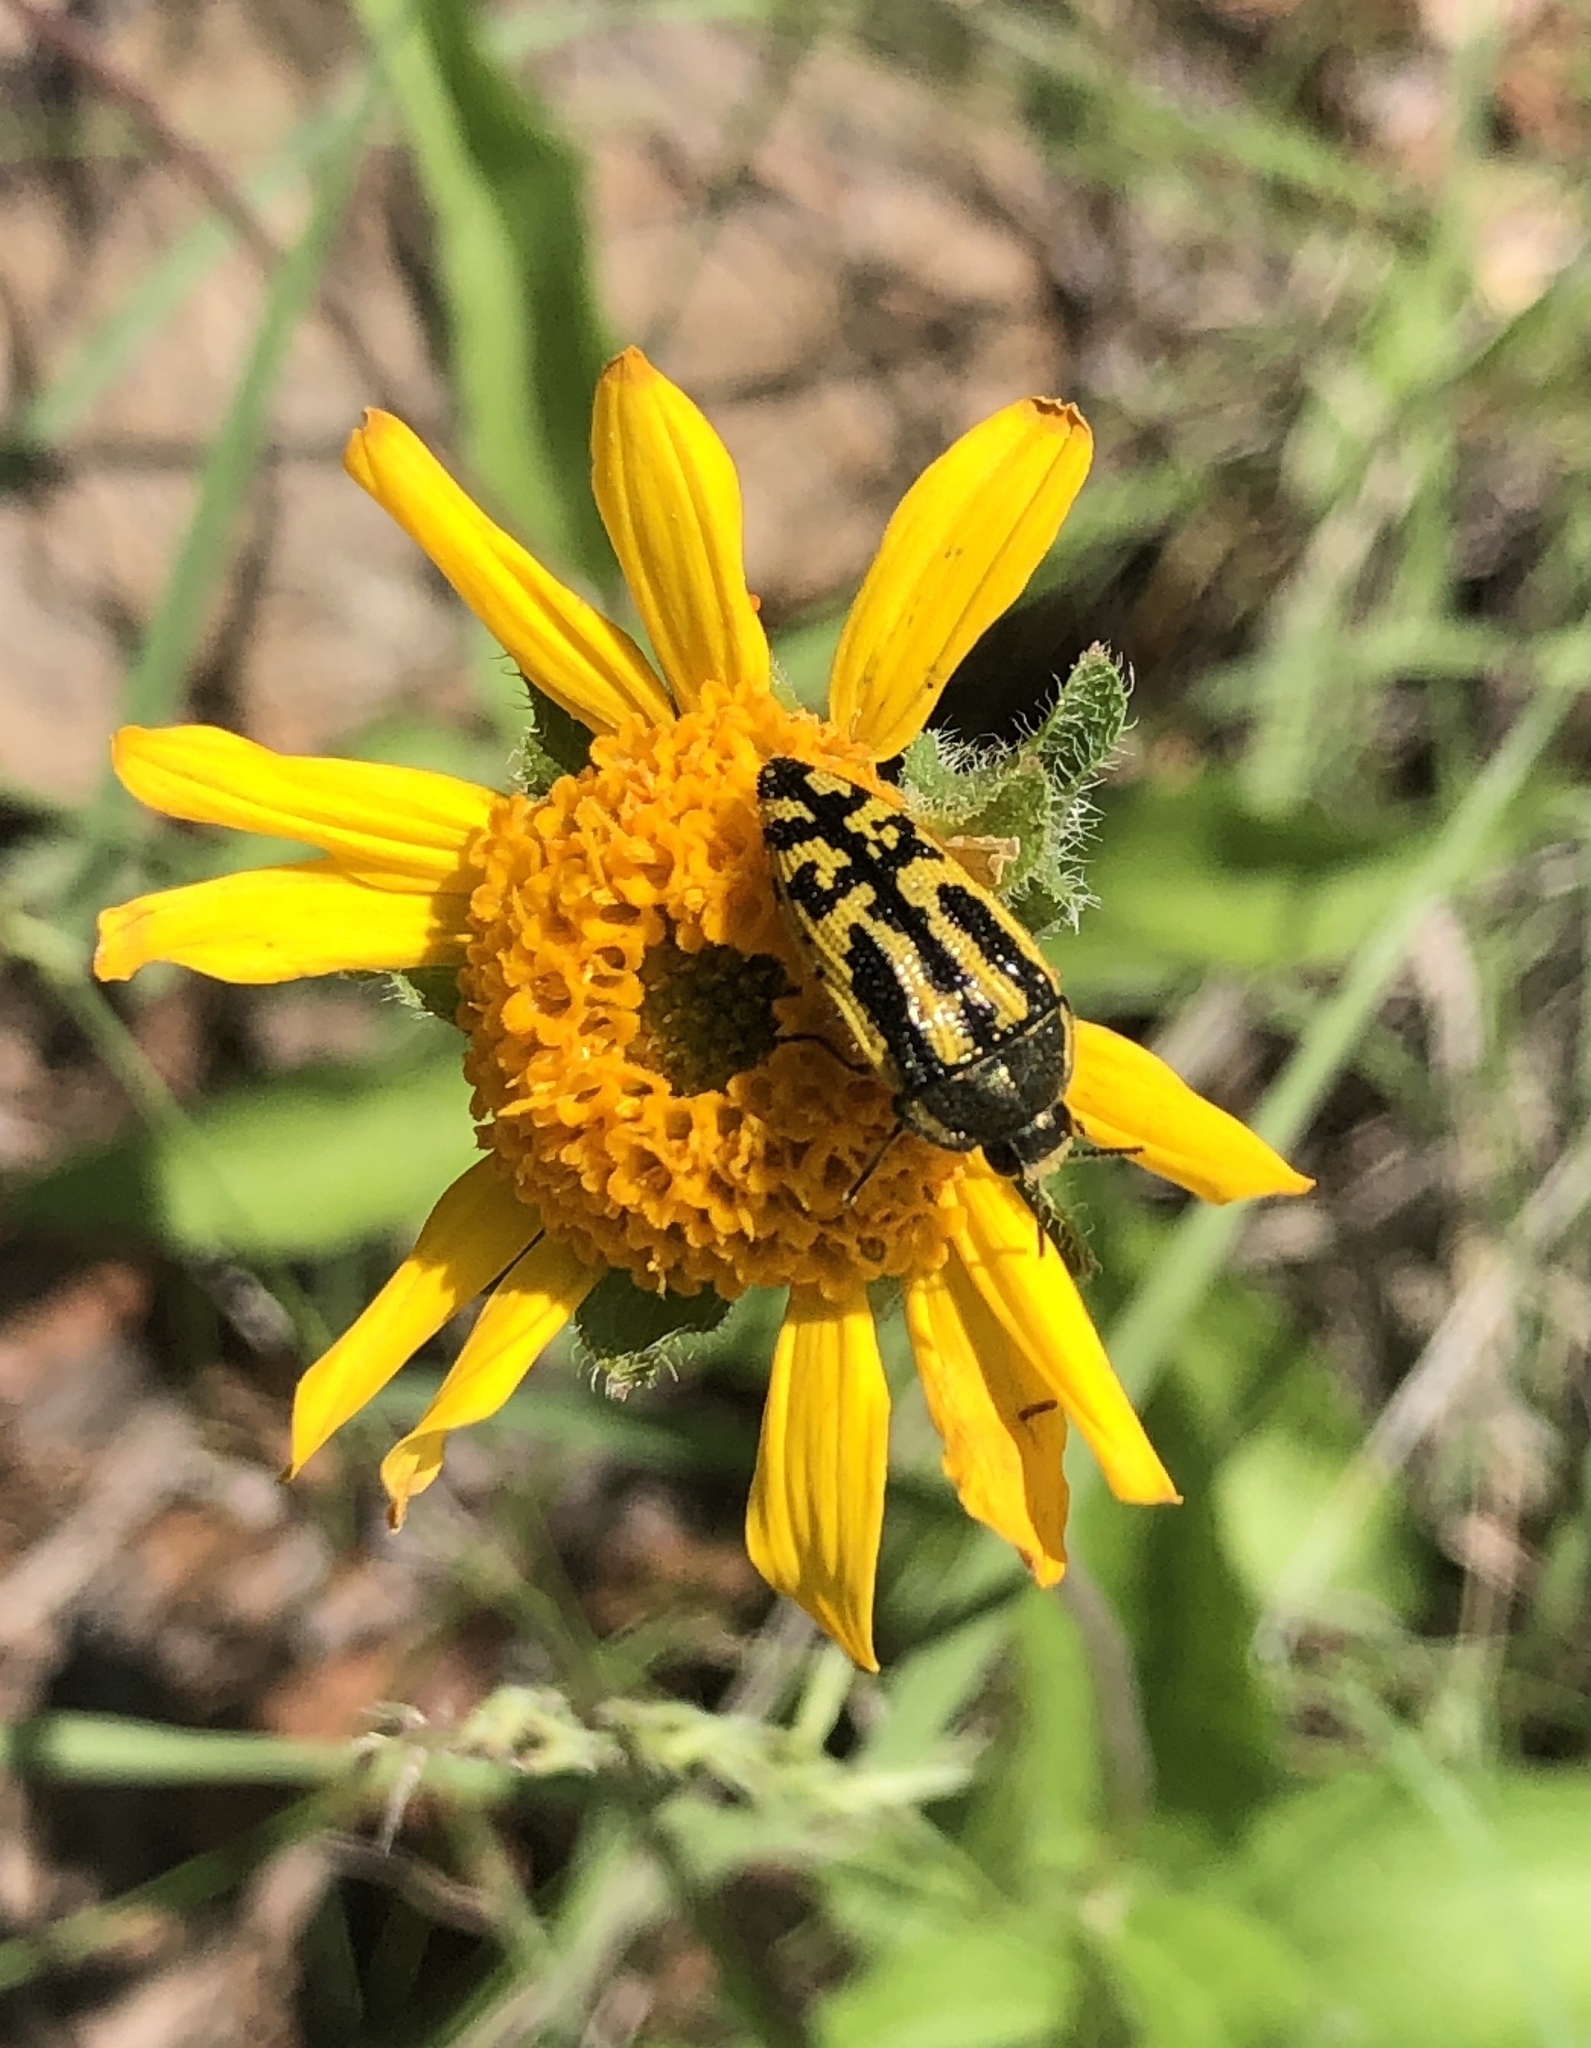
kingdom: Animalia
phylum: Arthropoda
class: Insecta
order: Coleoptera
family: Buprestidae
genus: Acmaeodera
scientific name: Acmaeodera amplicollis
